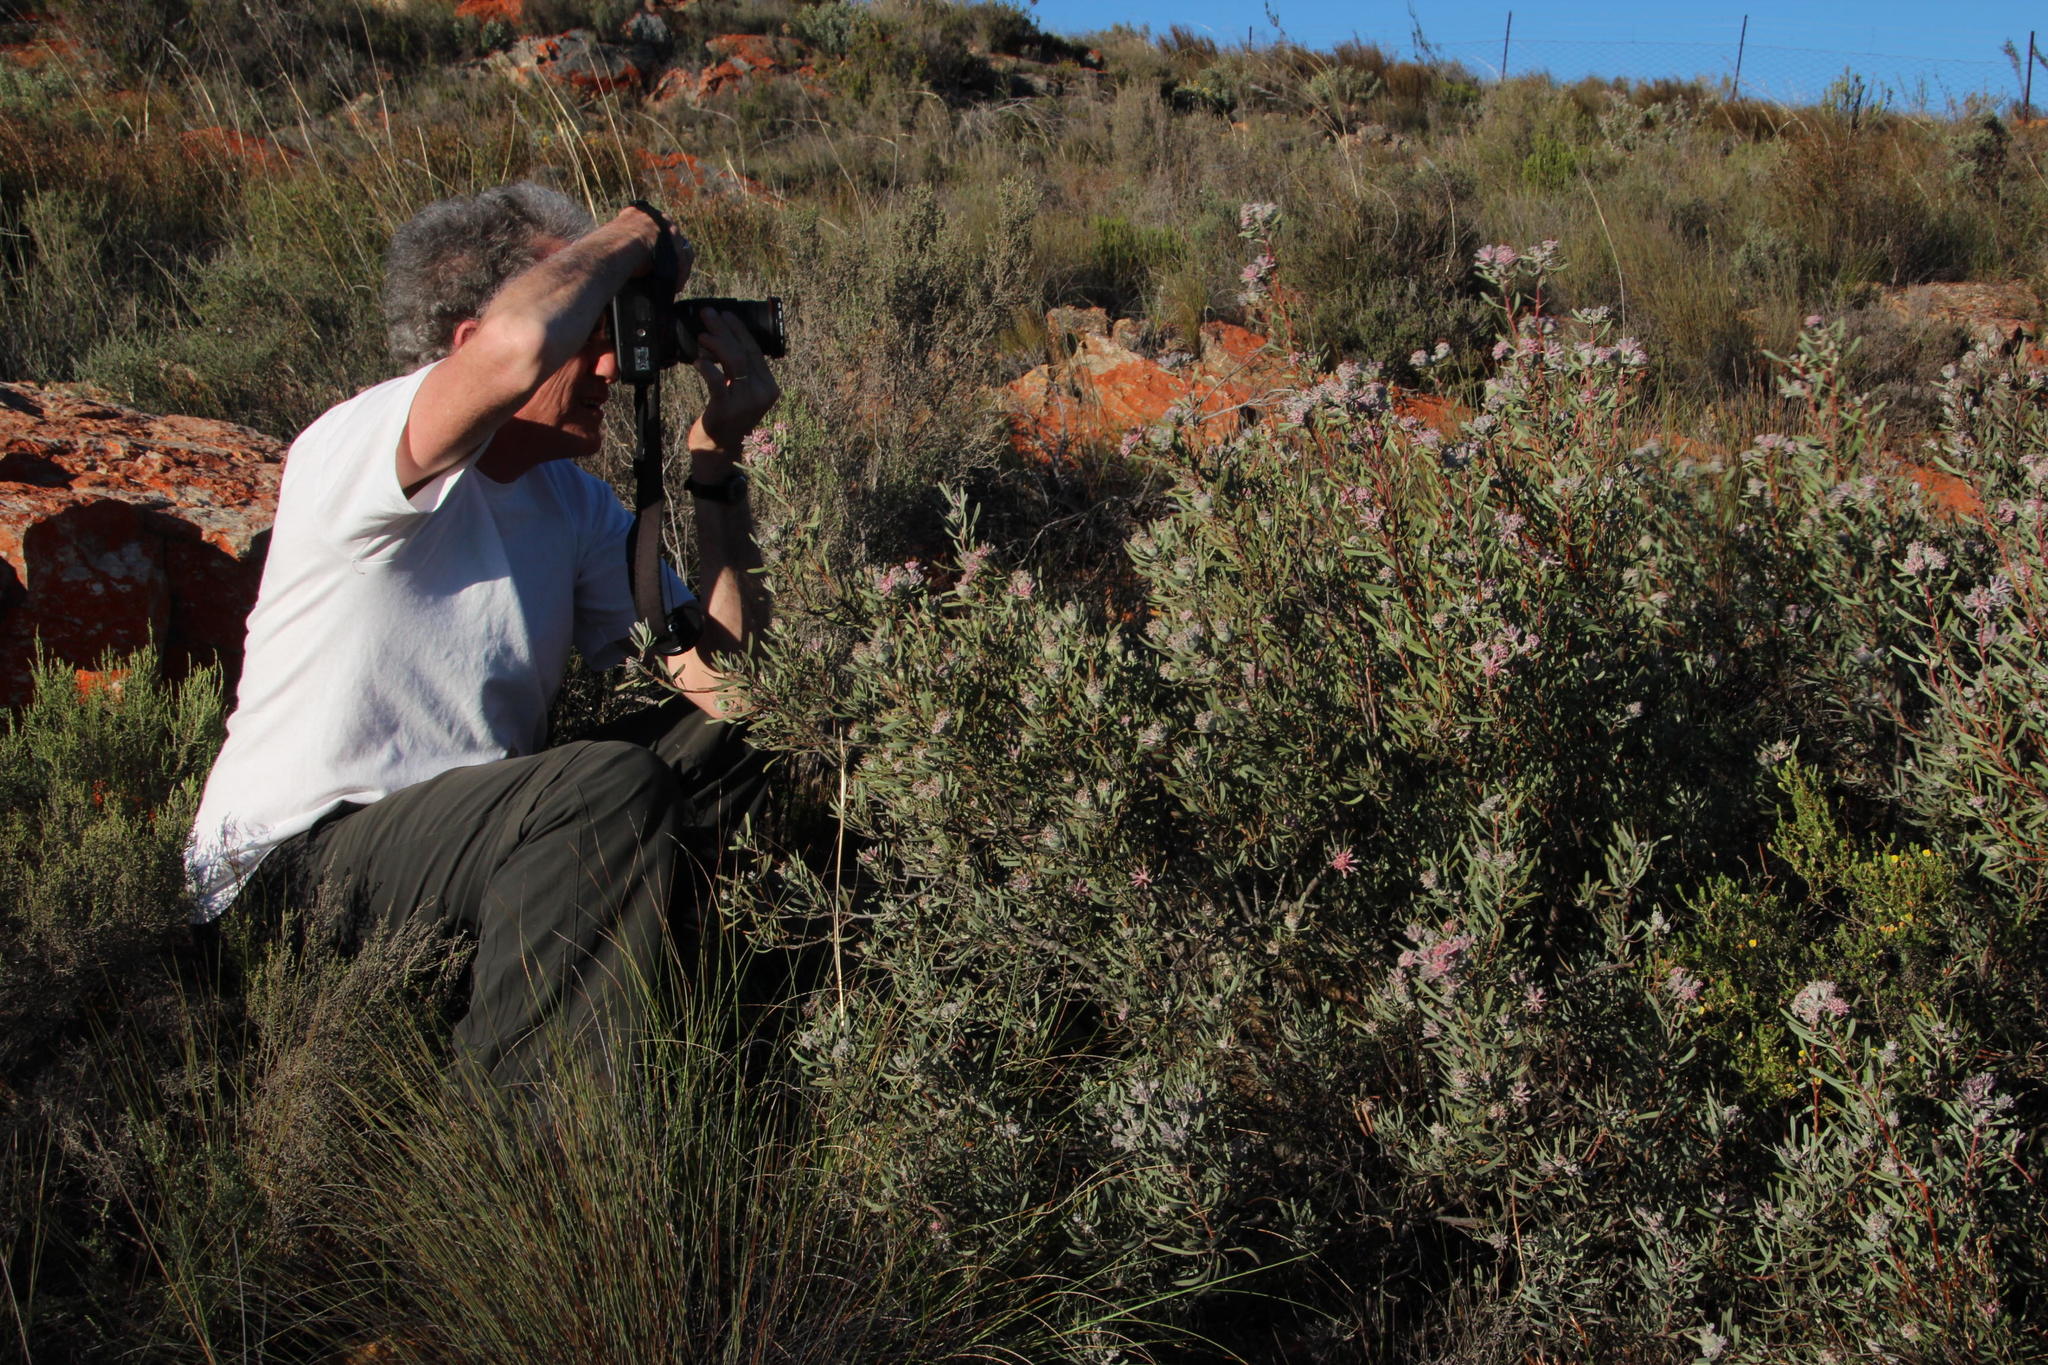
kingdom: Plantae
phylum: Tracheophyta
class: Magnoliopsida
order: Proteales
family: Proteaceae
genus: Vexatorella
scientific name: Vexatorella obtusata
